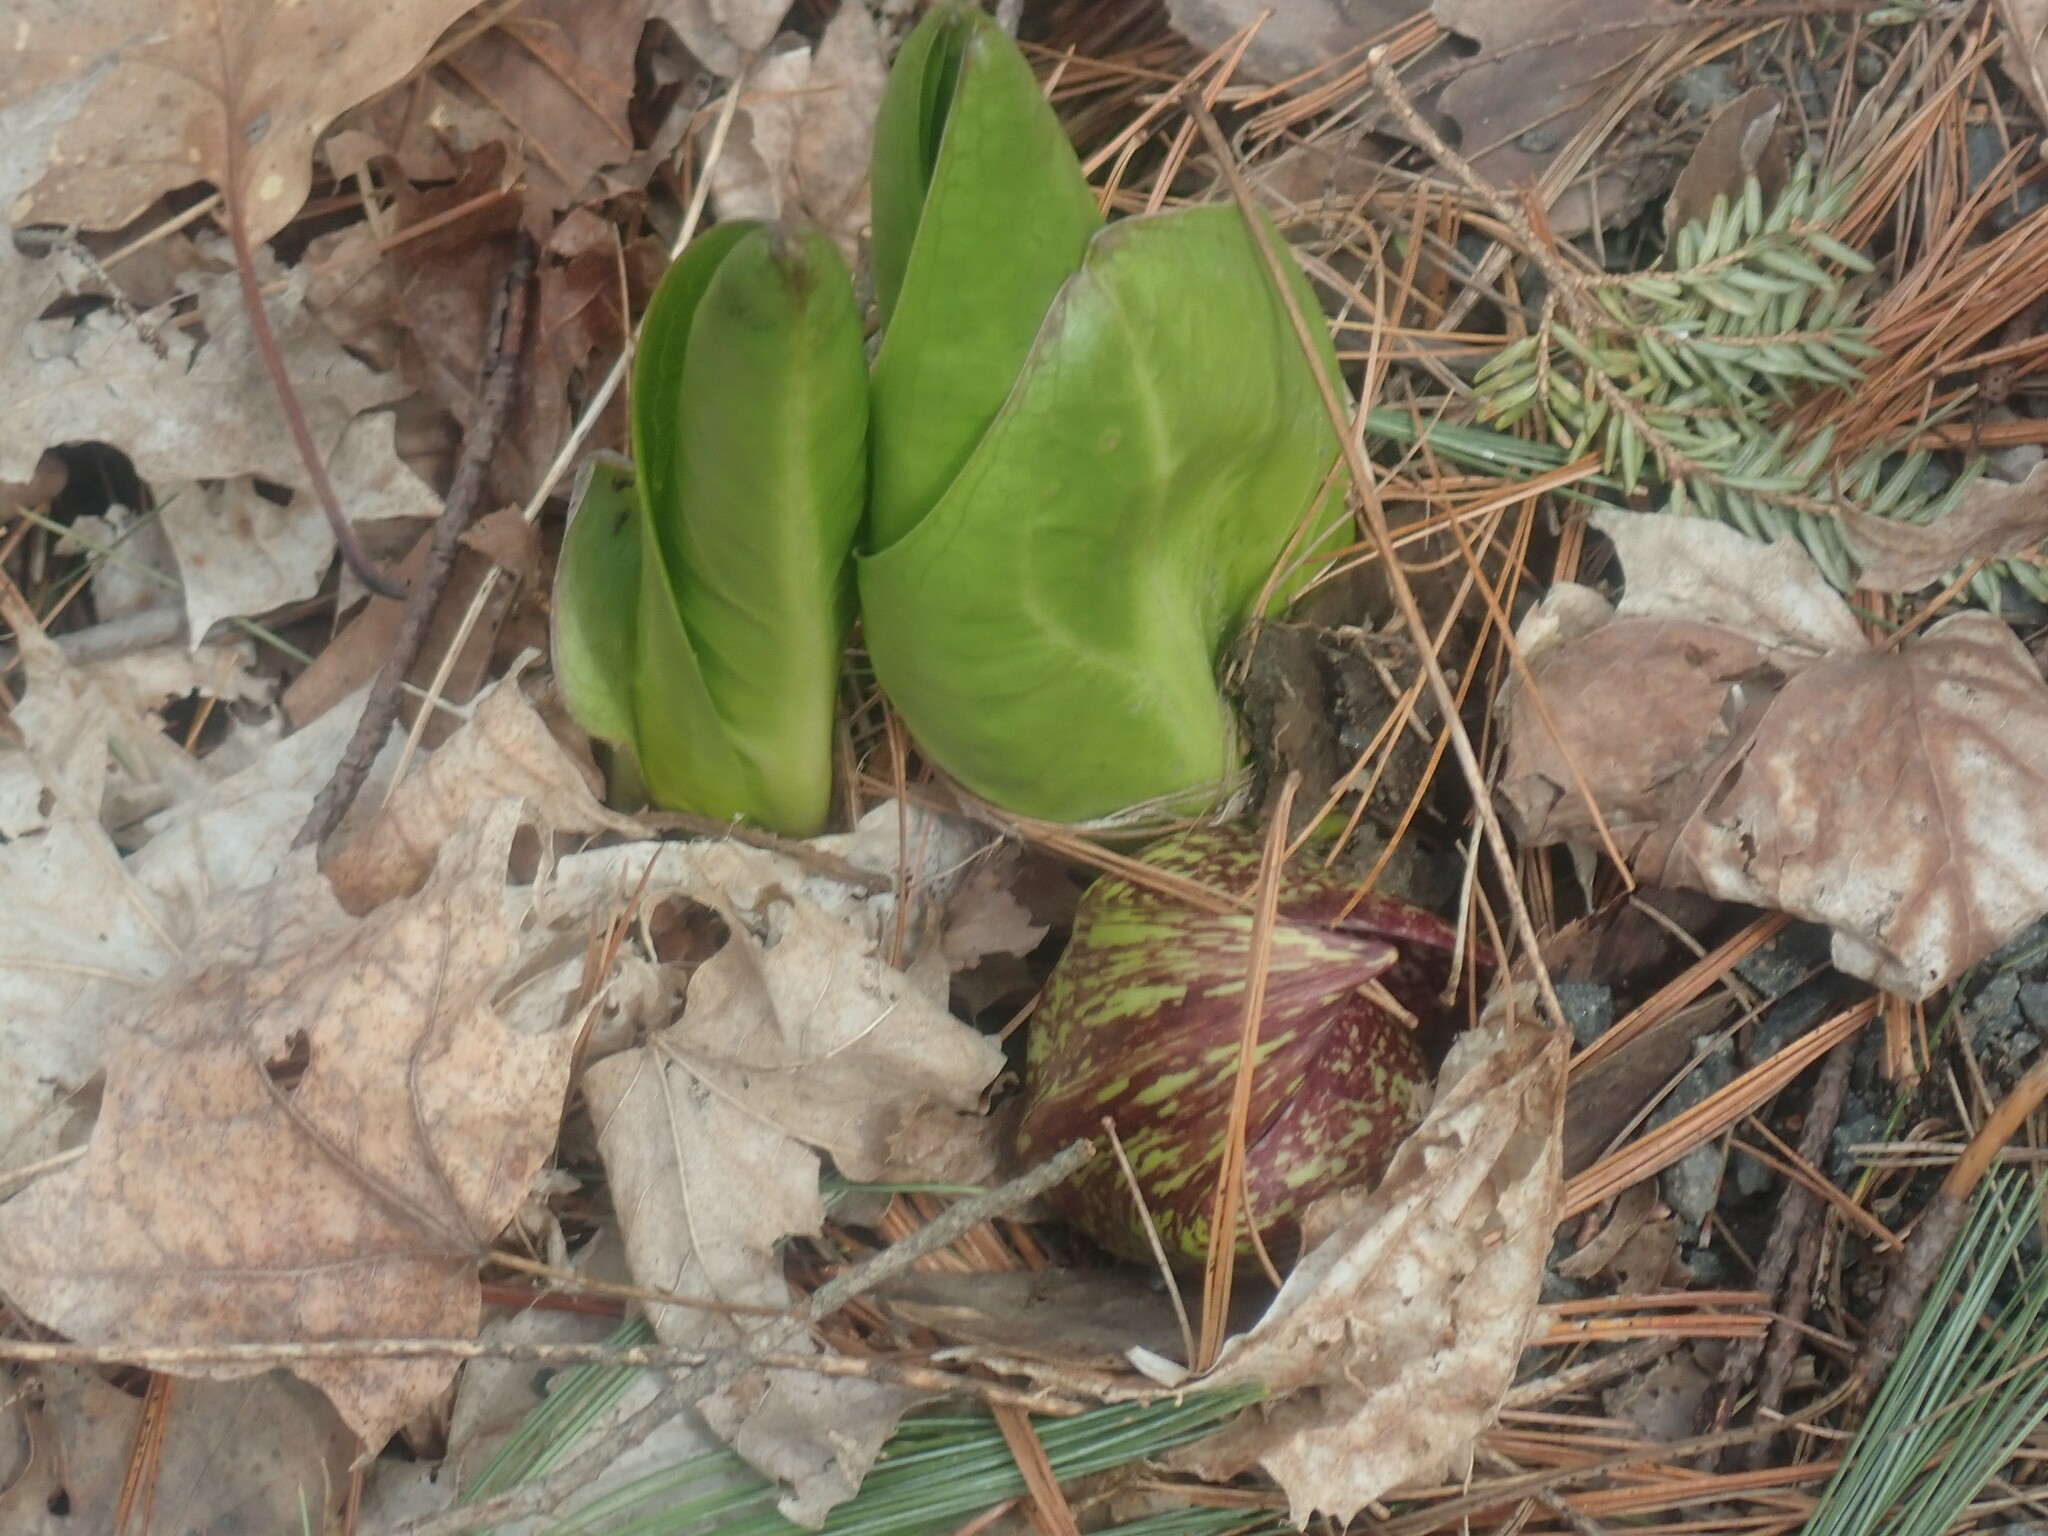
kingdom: Plantae
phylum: Tracheophyta
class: Liliopsida
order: Alismatales
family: Araceae
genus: Symplocarpus
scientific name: Symplocarpus foetidus
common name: Eastern skunk cabbage
